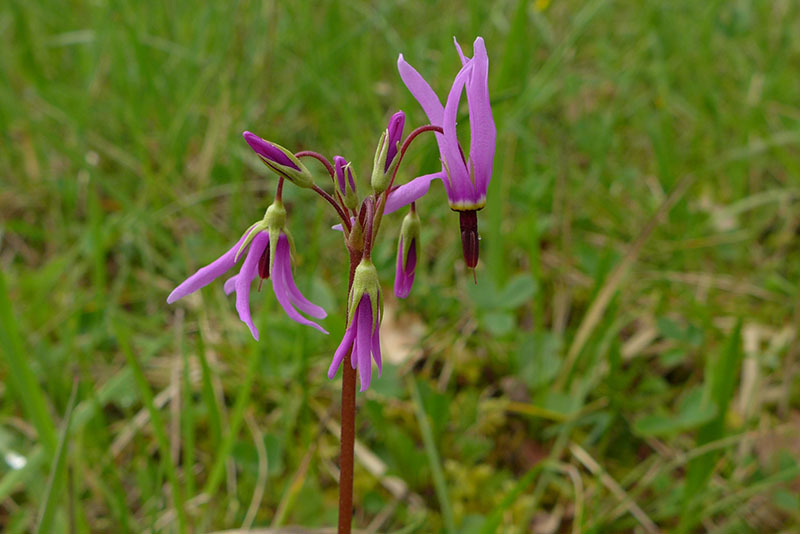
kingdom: Plantae
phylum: Tracheophyta
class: Magnoliopsida
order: Ericales
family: Primulaceae
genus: Dodecatheon
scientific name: Dodecatheon hendersonii
